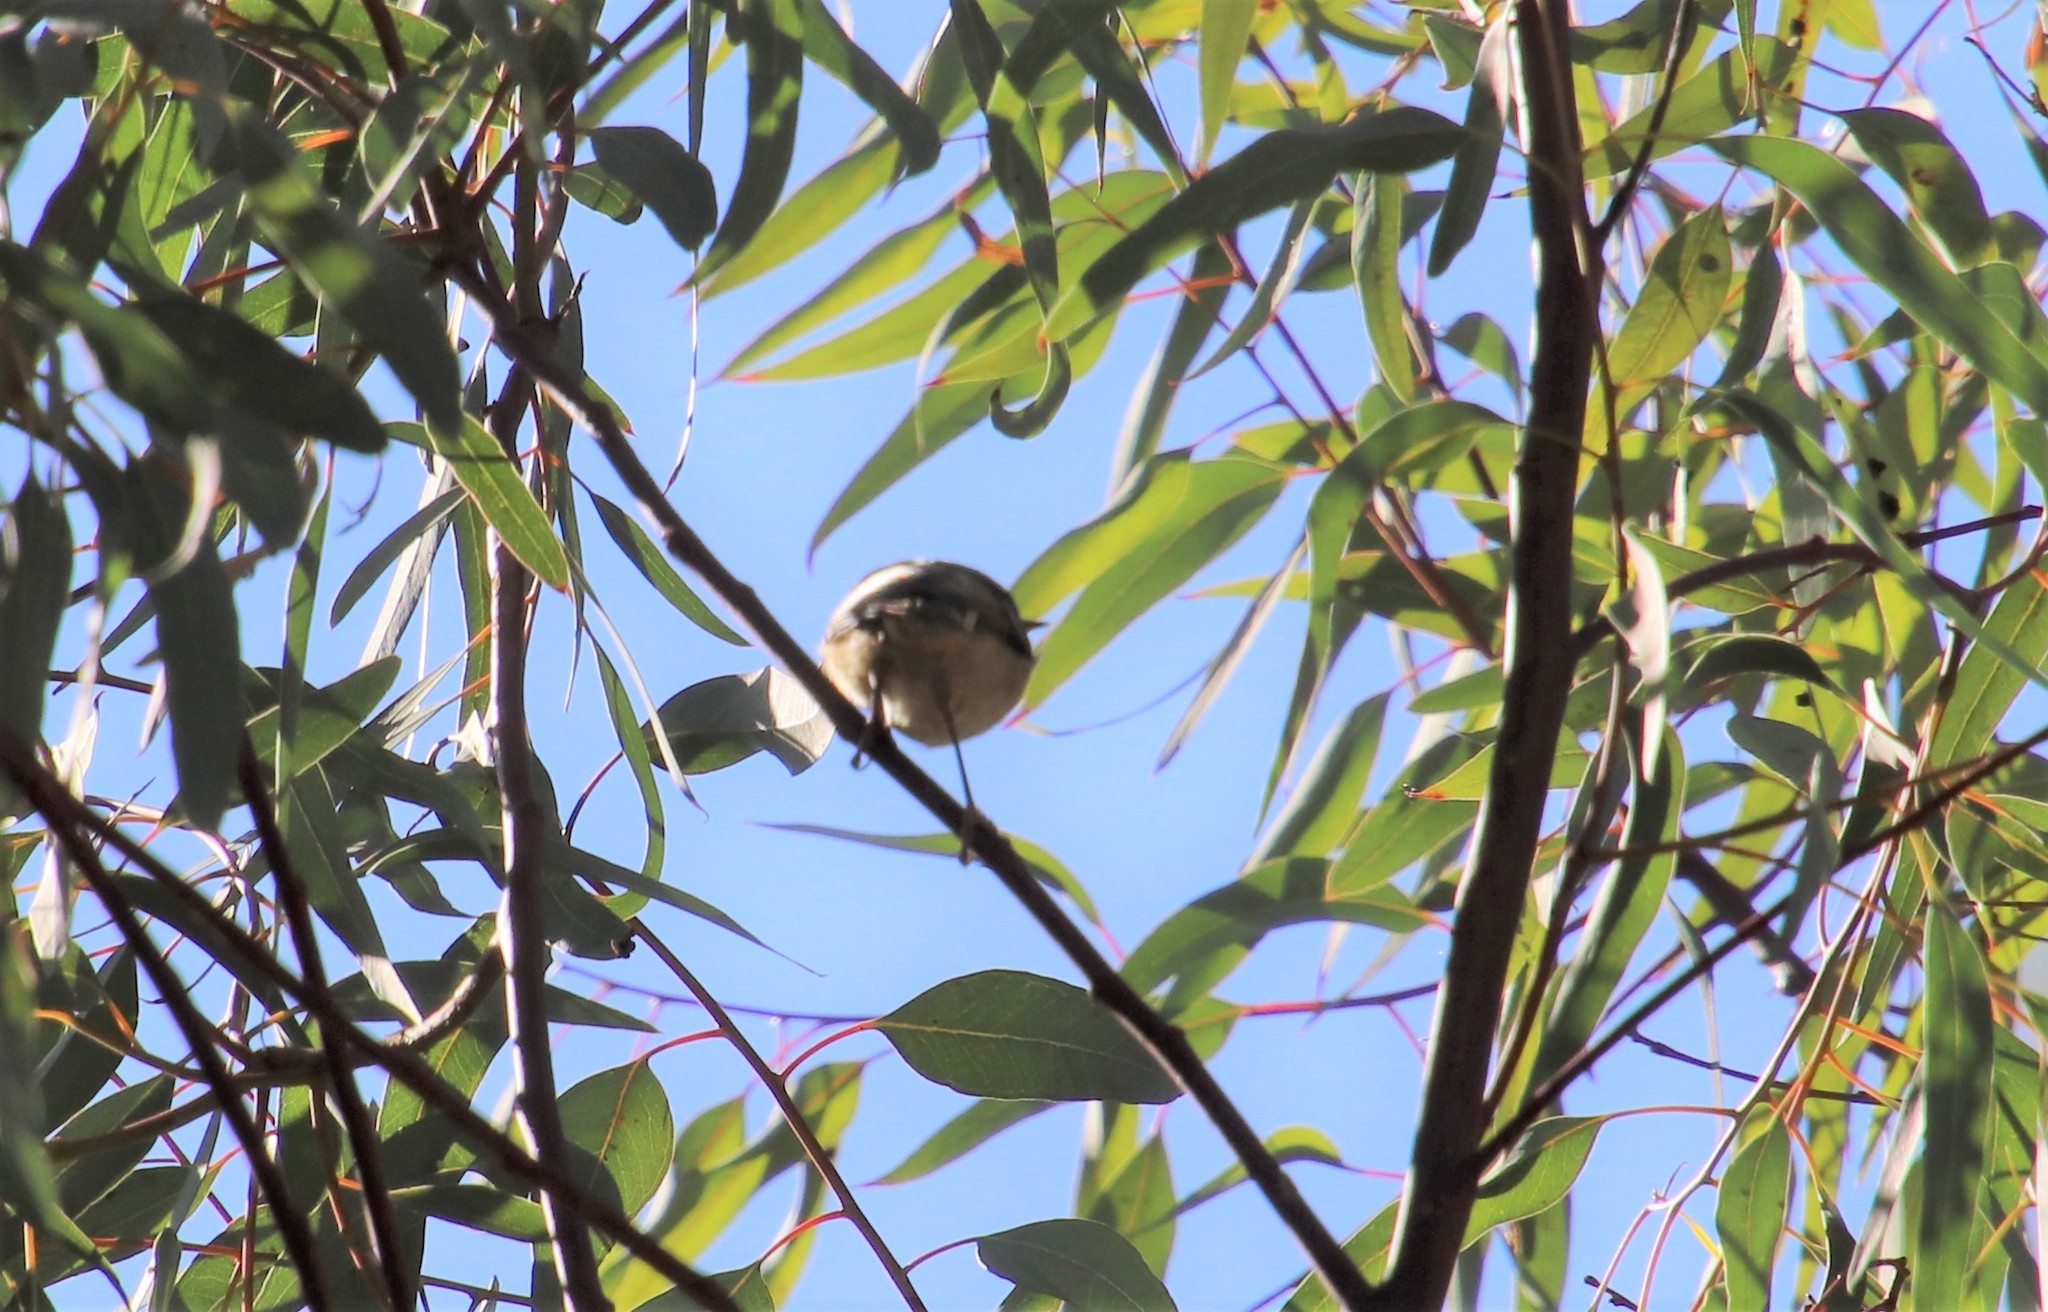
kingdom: Animalia
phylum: Chordata
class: Aves
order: Passeriformes
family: Regulidae
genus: Regulus
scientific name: Regulus calendula
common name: Ruby-crowned kinglet
